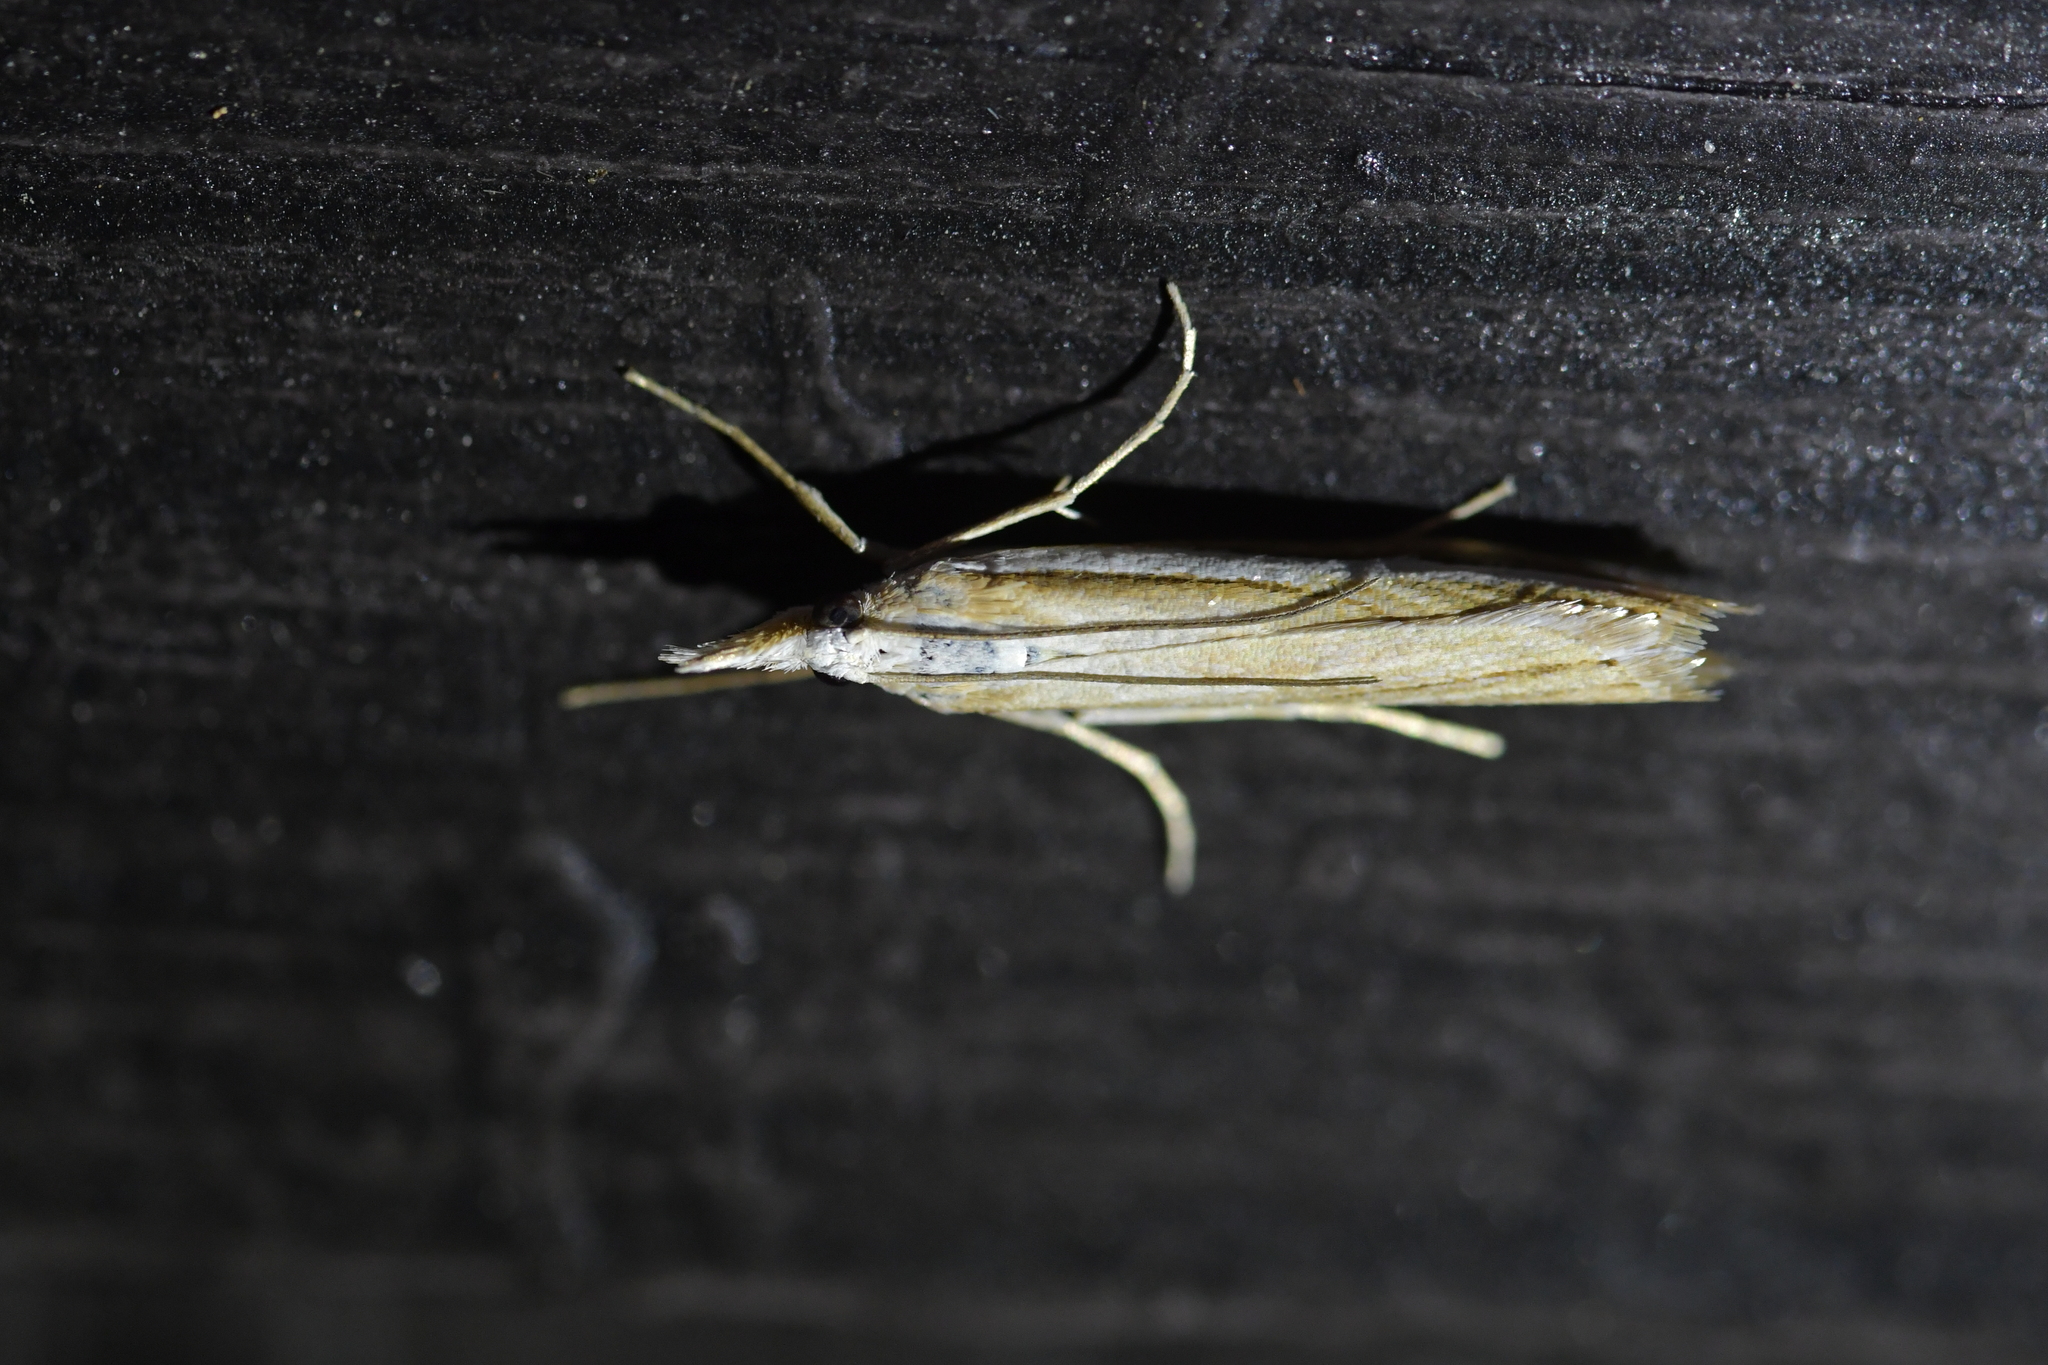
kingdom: Animalia
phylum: Arthropoda
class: Insecta
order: Lepidoptera
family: Crambidae
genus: Orocrambus
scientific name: Orocrambus vittellus
